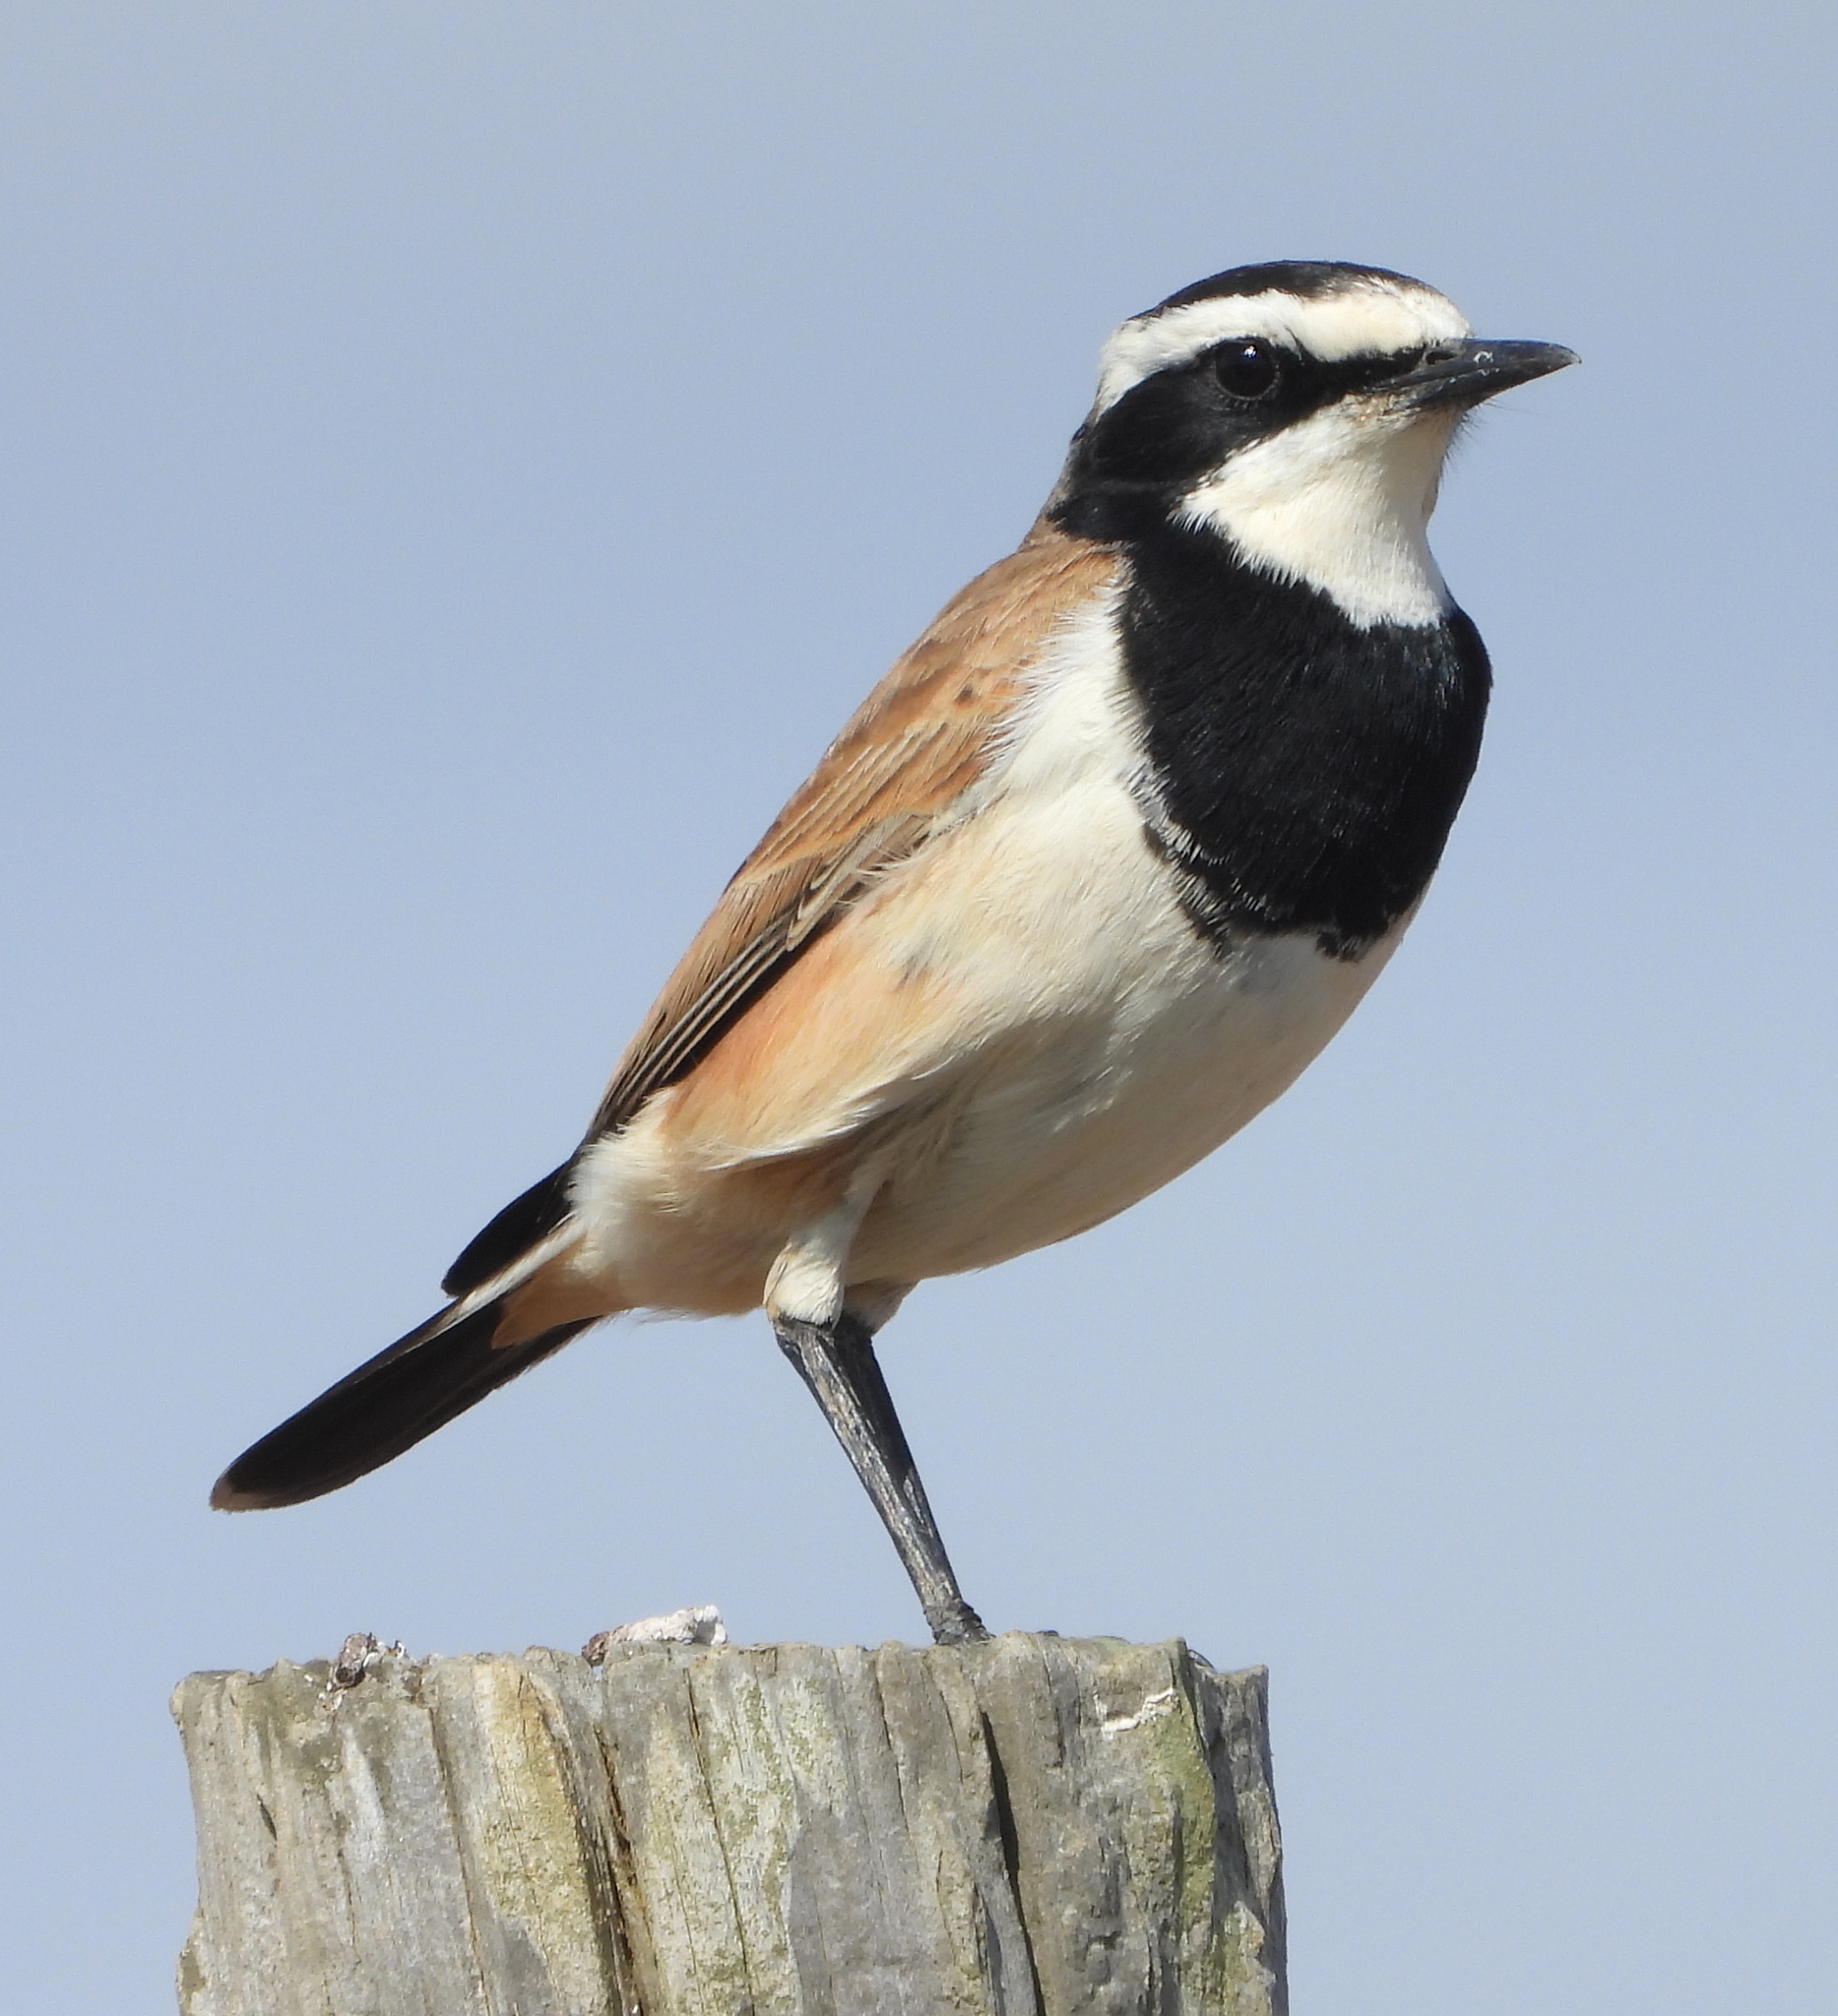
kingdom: Animalia
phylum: Chordata
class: Aves
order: Passeriformes
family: Muscicapidae
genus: Oenanthe
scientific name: Oenanthe pileata
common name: Capped wheatear
